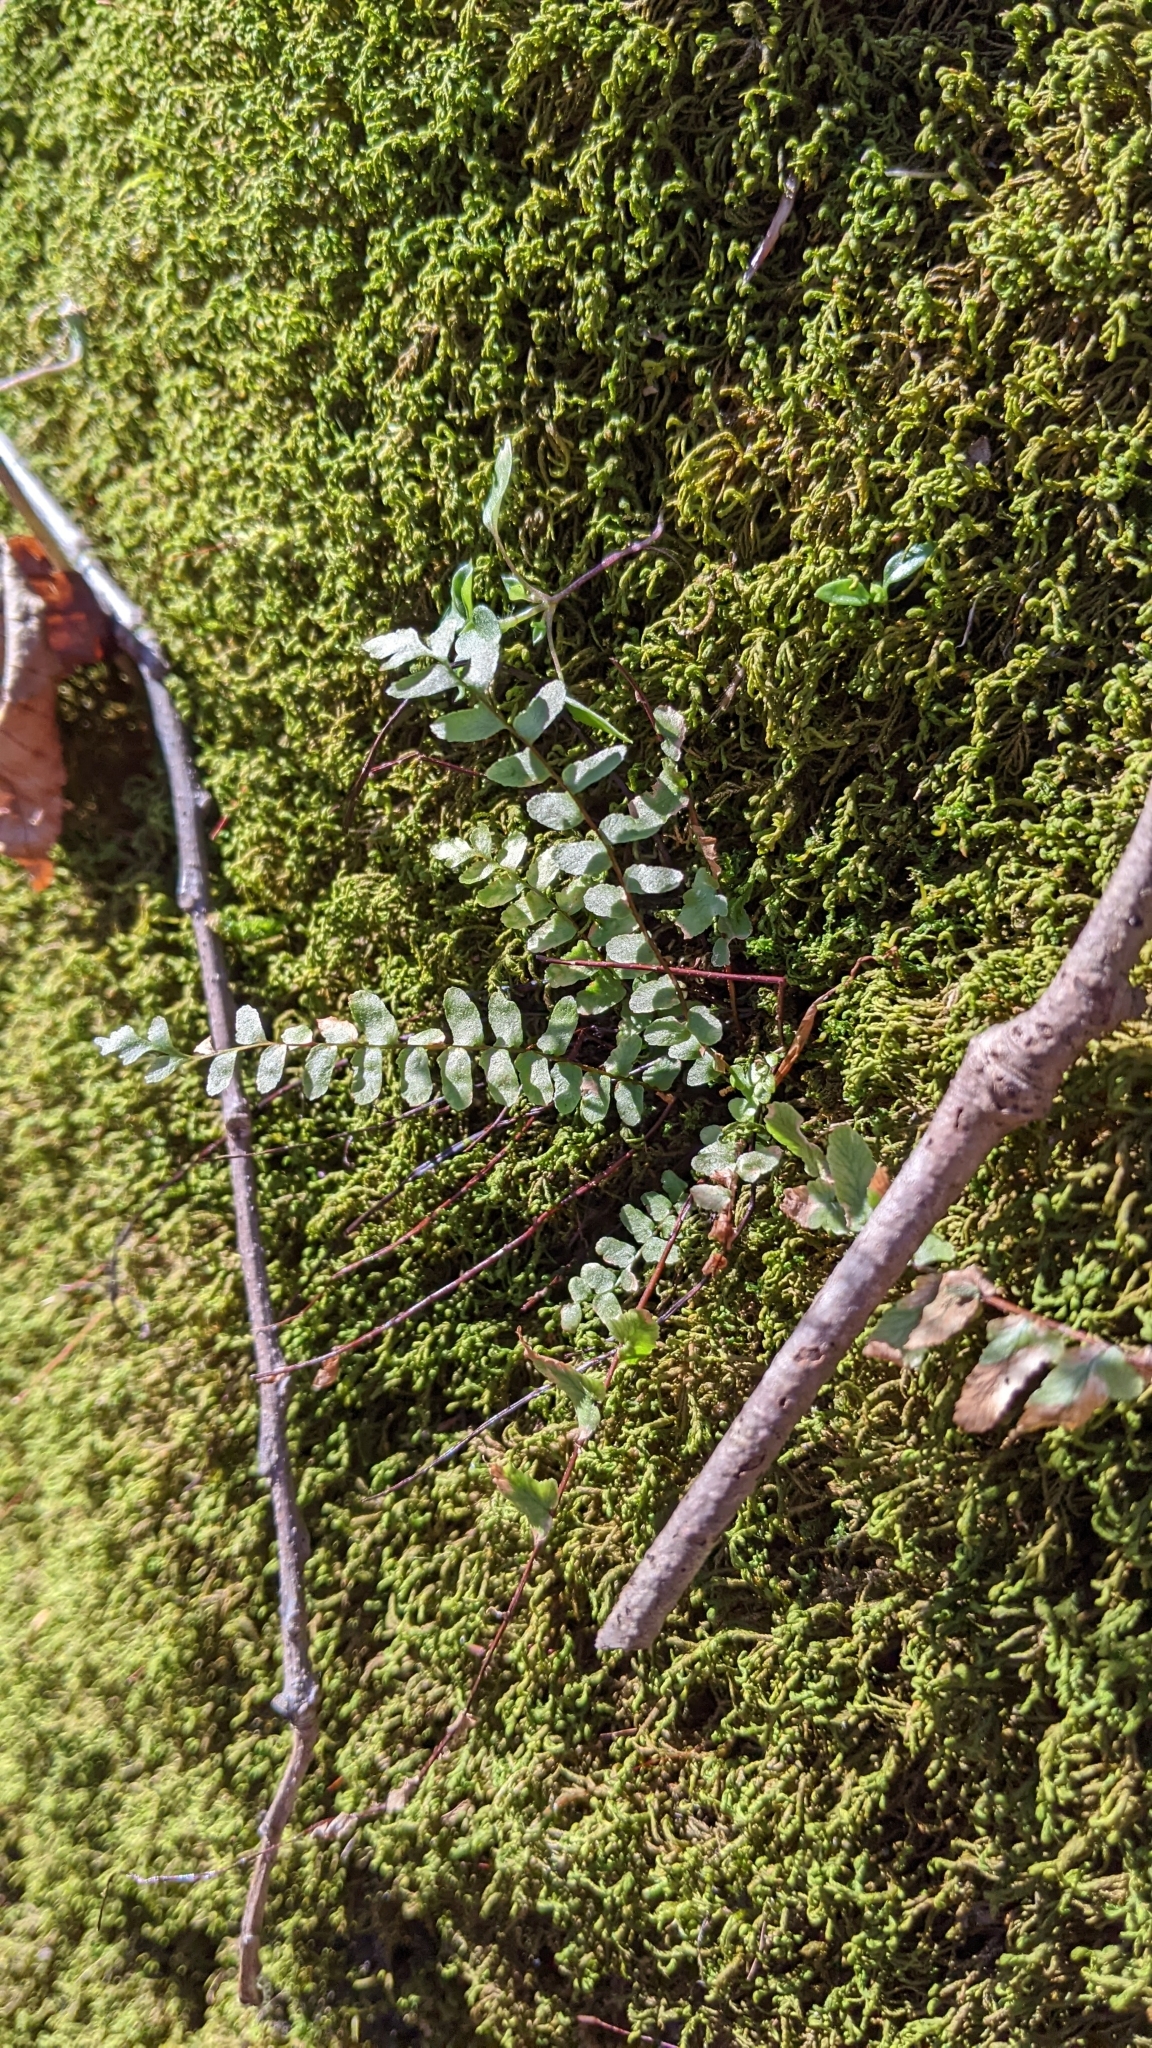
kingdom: Plantae
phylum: Tracheophyta
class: Polypodiopsida
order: Polypodiales
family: Aspleniaceae
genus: Asplenium
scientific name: Asplenium platyneuron
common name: Ebony spleenwort
